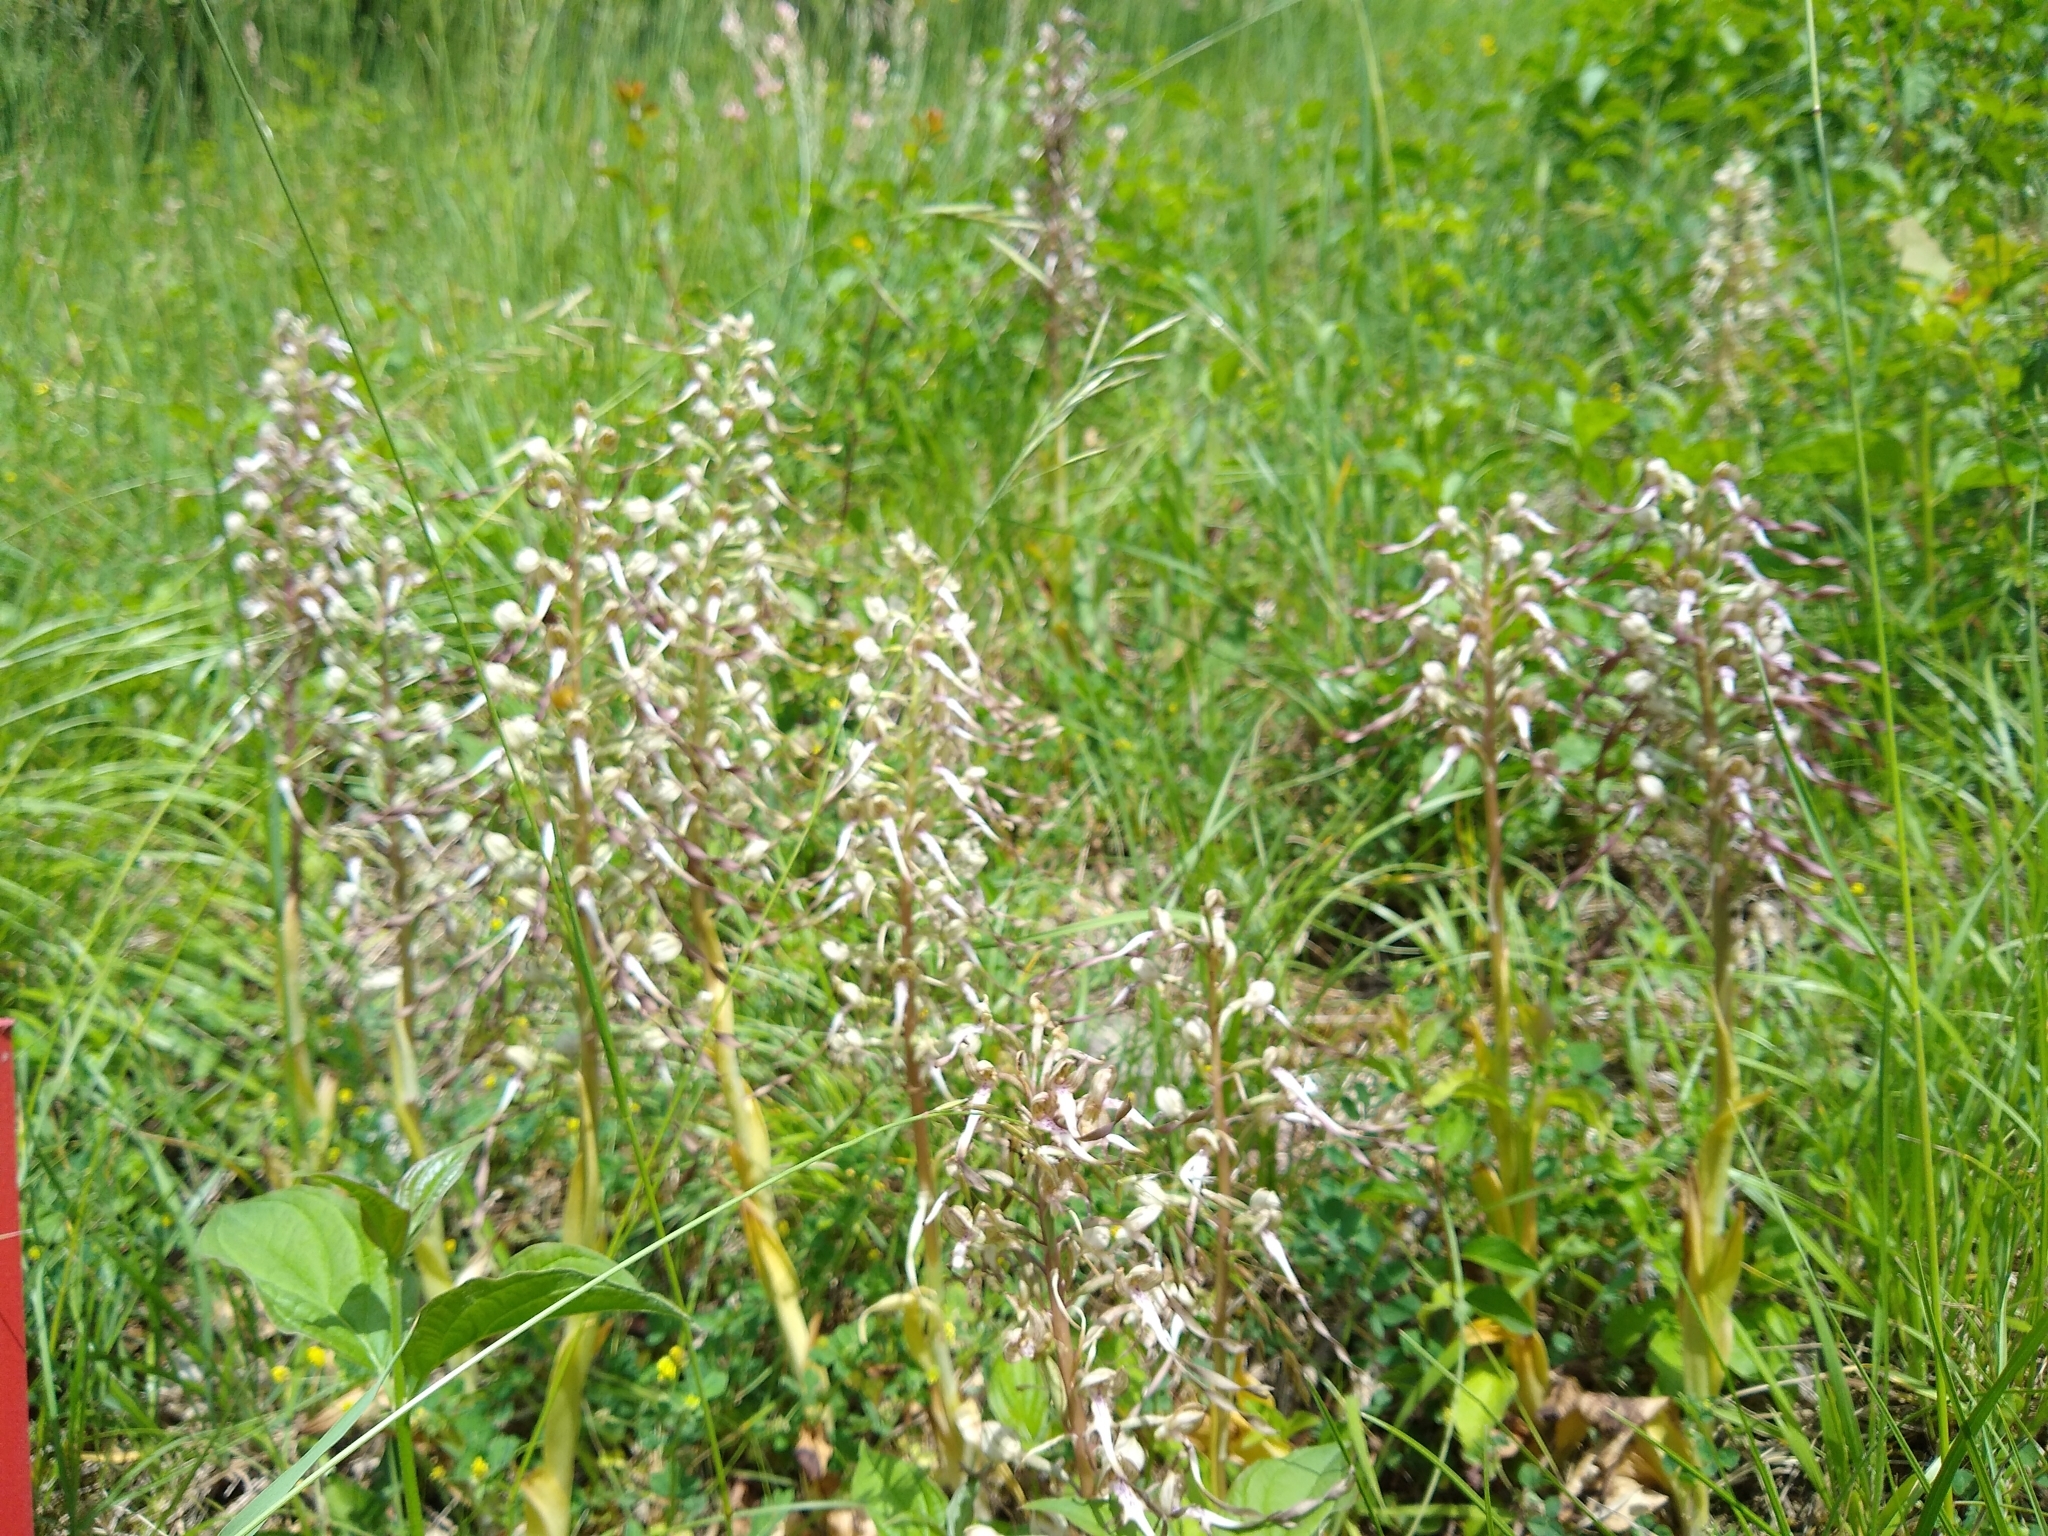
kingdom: Plantae
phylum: Tracheophyta
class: Liliopsida
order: Asparagales
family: Orchidaceae
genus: Himantoglossum
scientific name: Himantoglossum hircinum
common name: Lizard orchid
